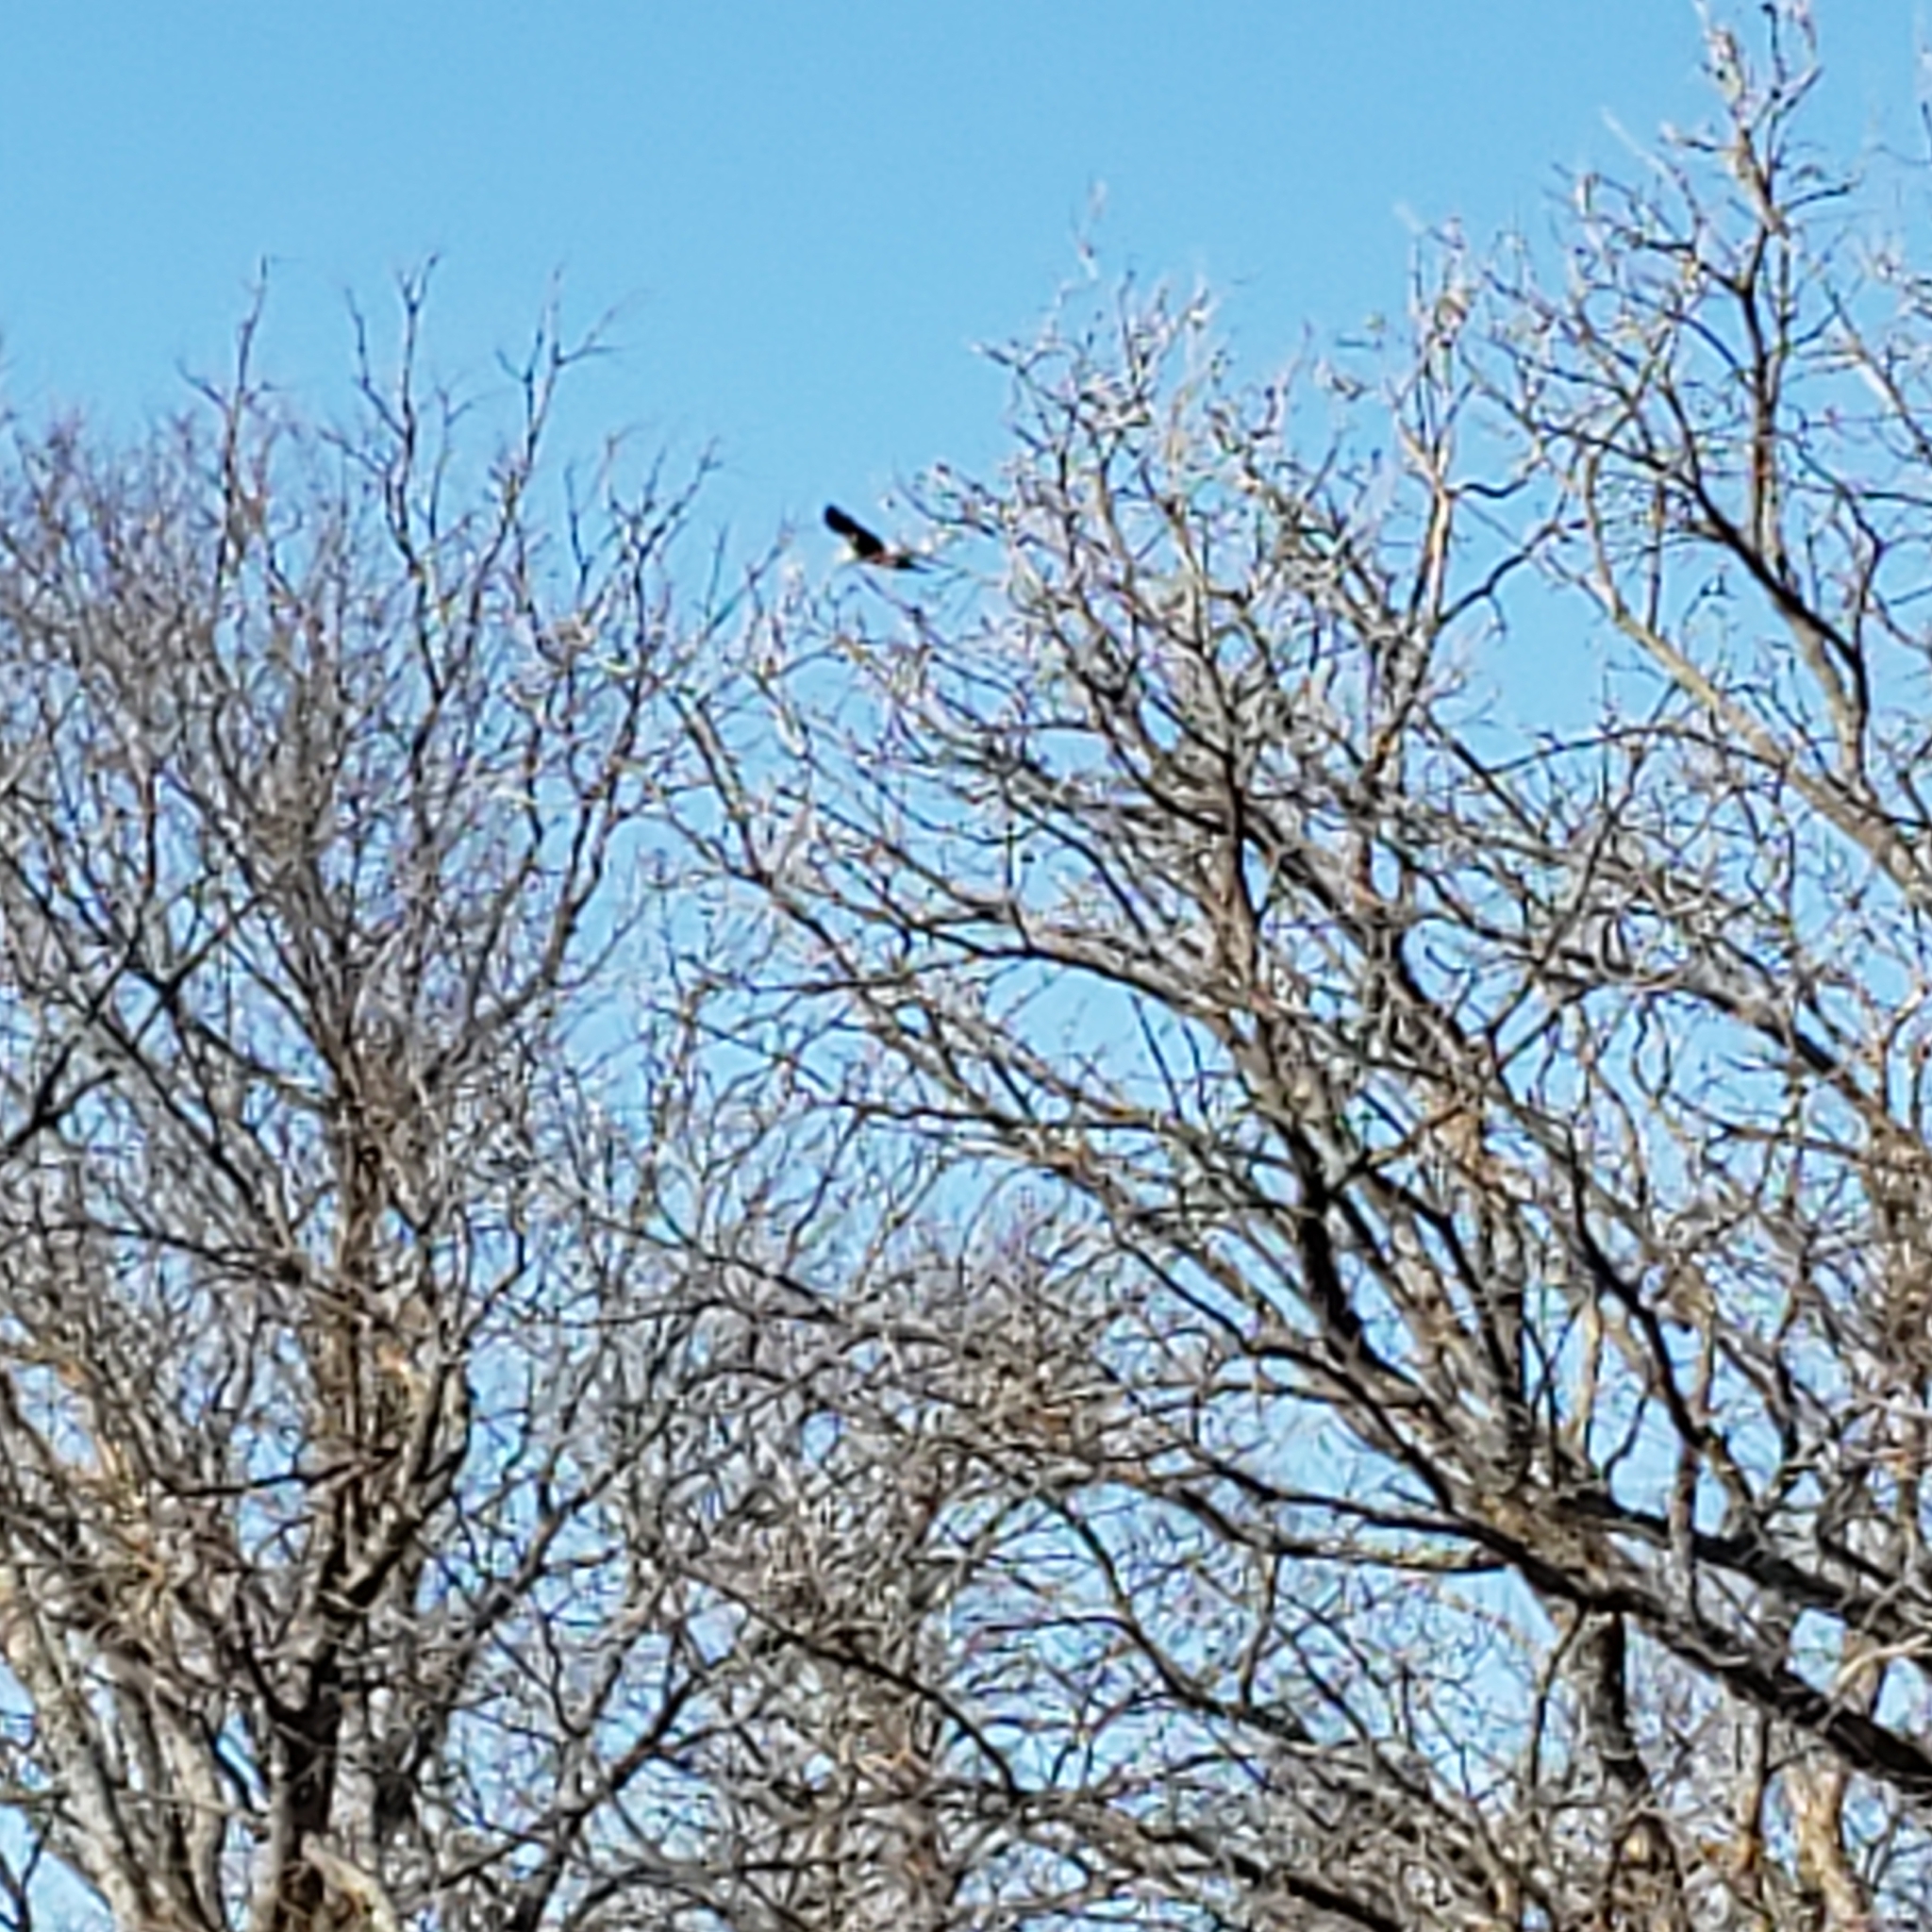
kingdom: Animalia
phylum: Chordata
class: Aves
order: Accipitriformes
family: Accipitridae
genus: Haliaeetus
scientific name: Haliaeetus leucocephalus
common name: Bald eagle
